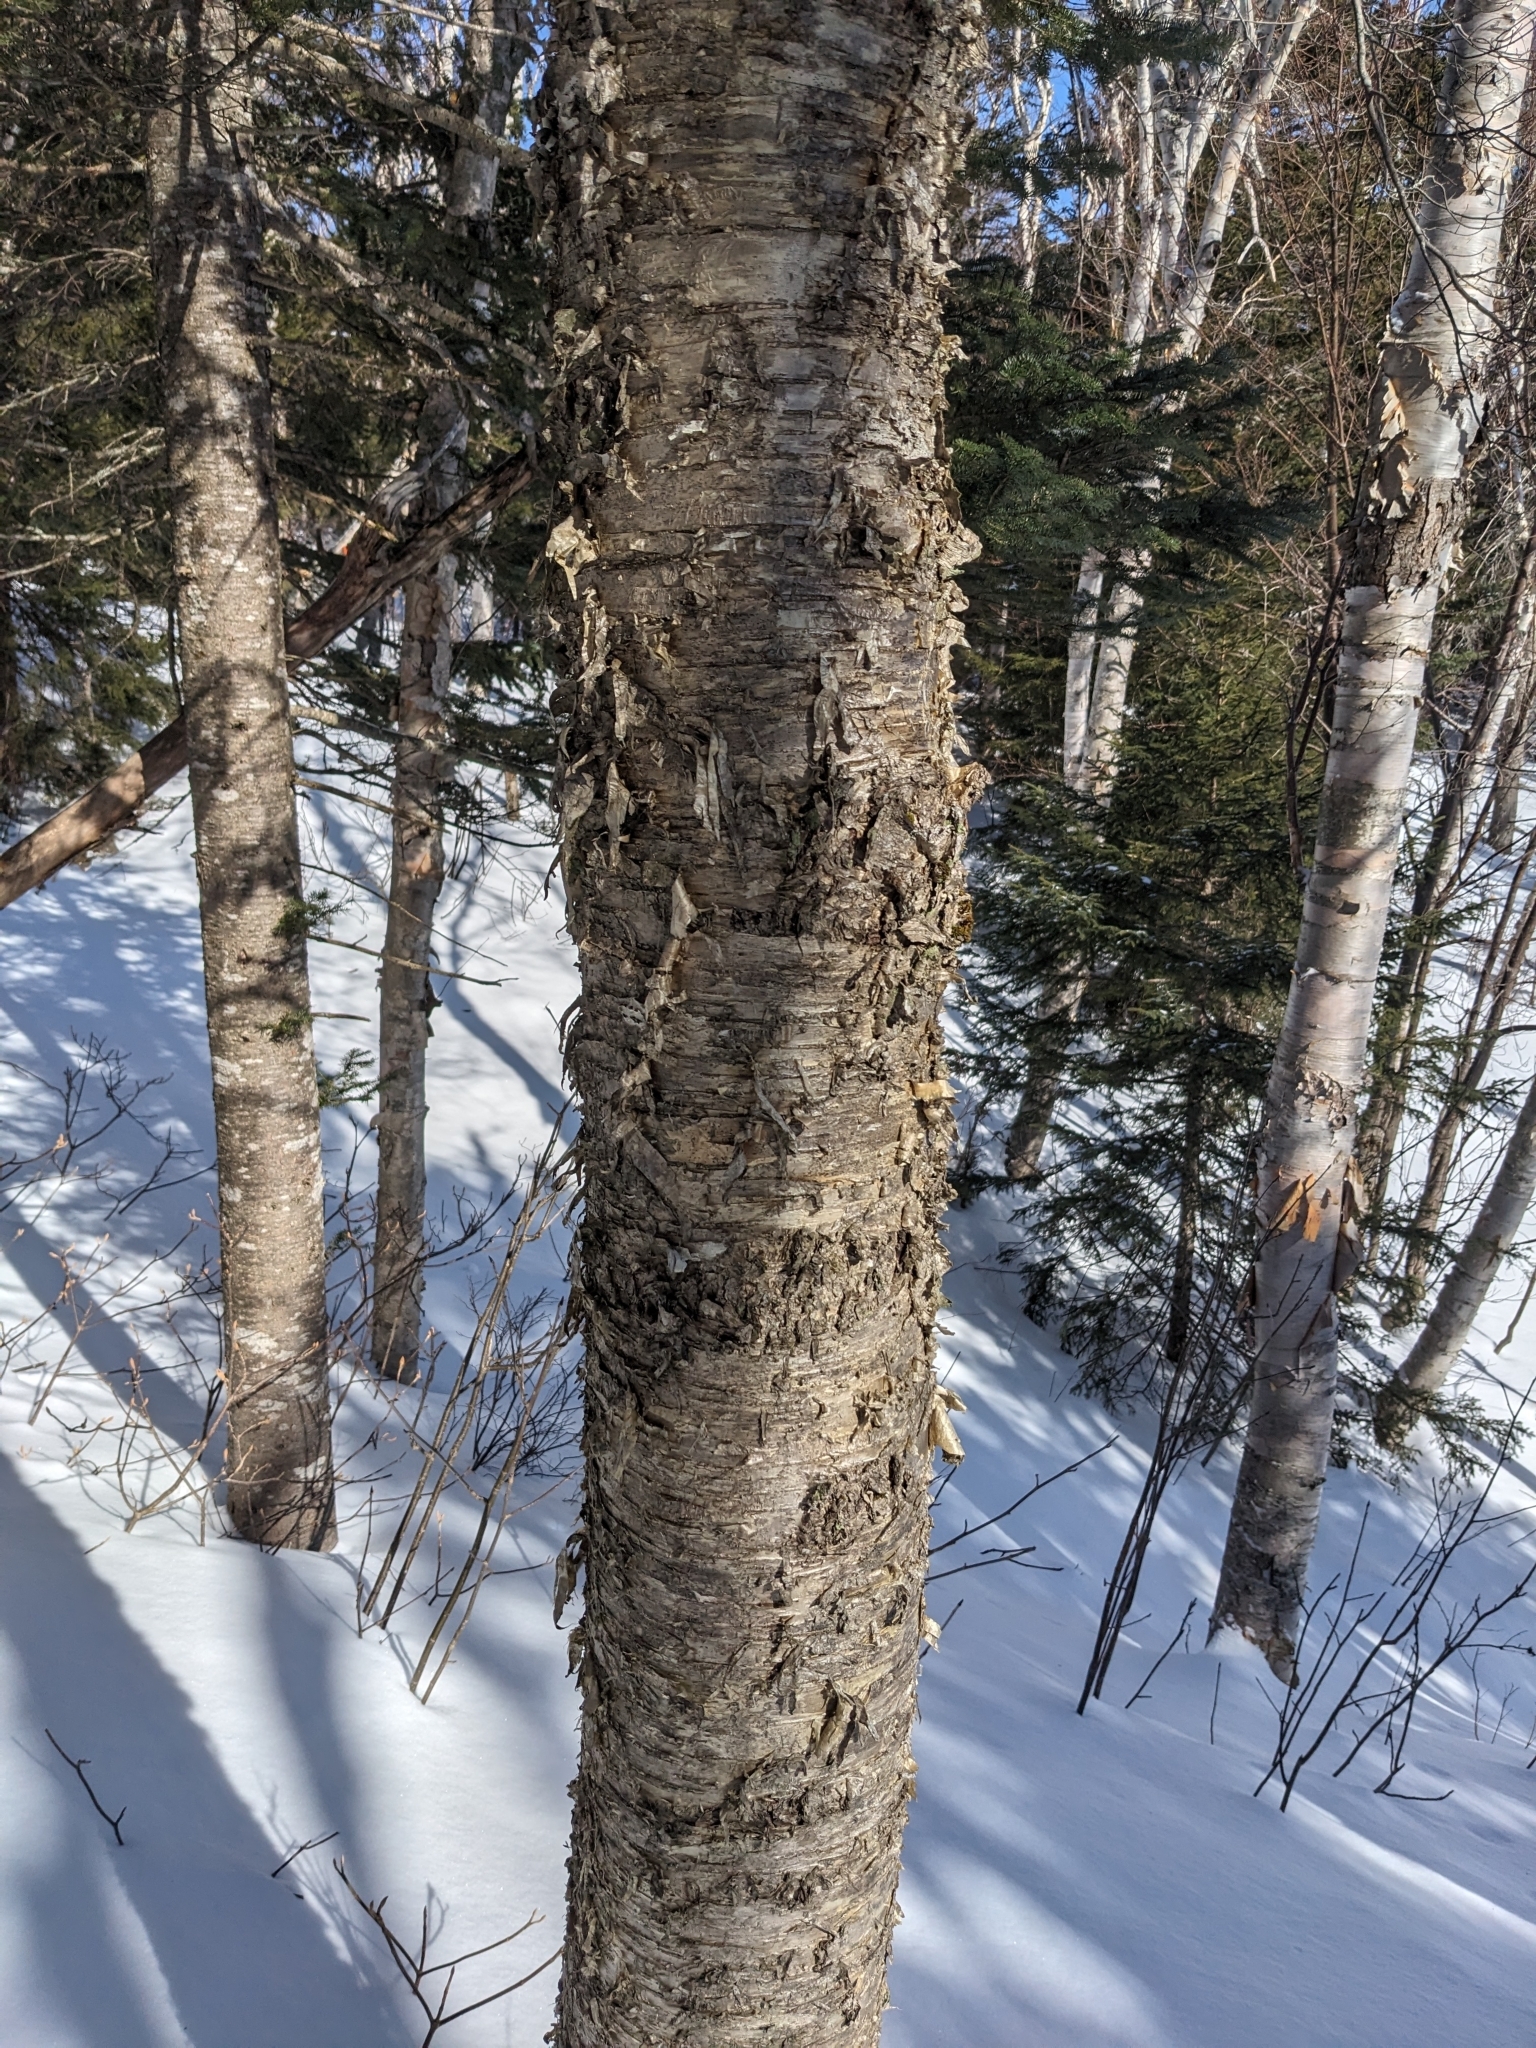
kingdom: Plantae
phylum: Tracheophyta
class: Magnoliopsida
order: Fagales
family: Betulaceae
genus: Betula
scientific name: Betula alleghaniensis
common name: Yellow birch
